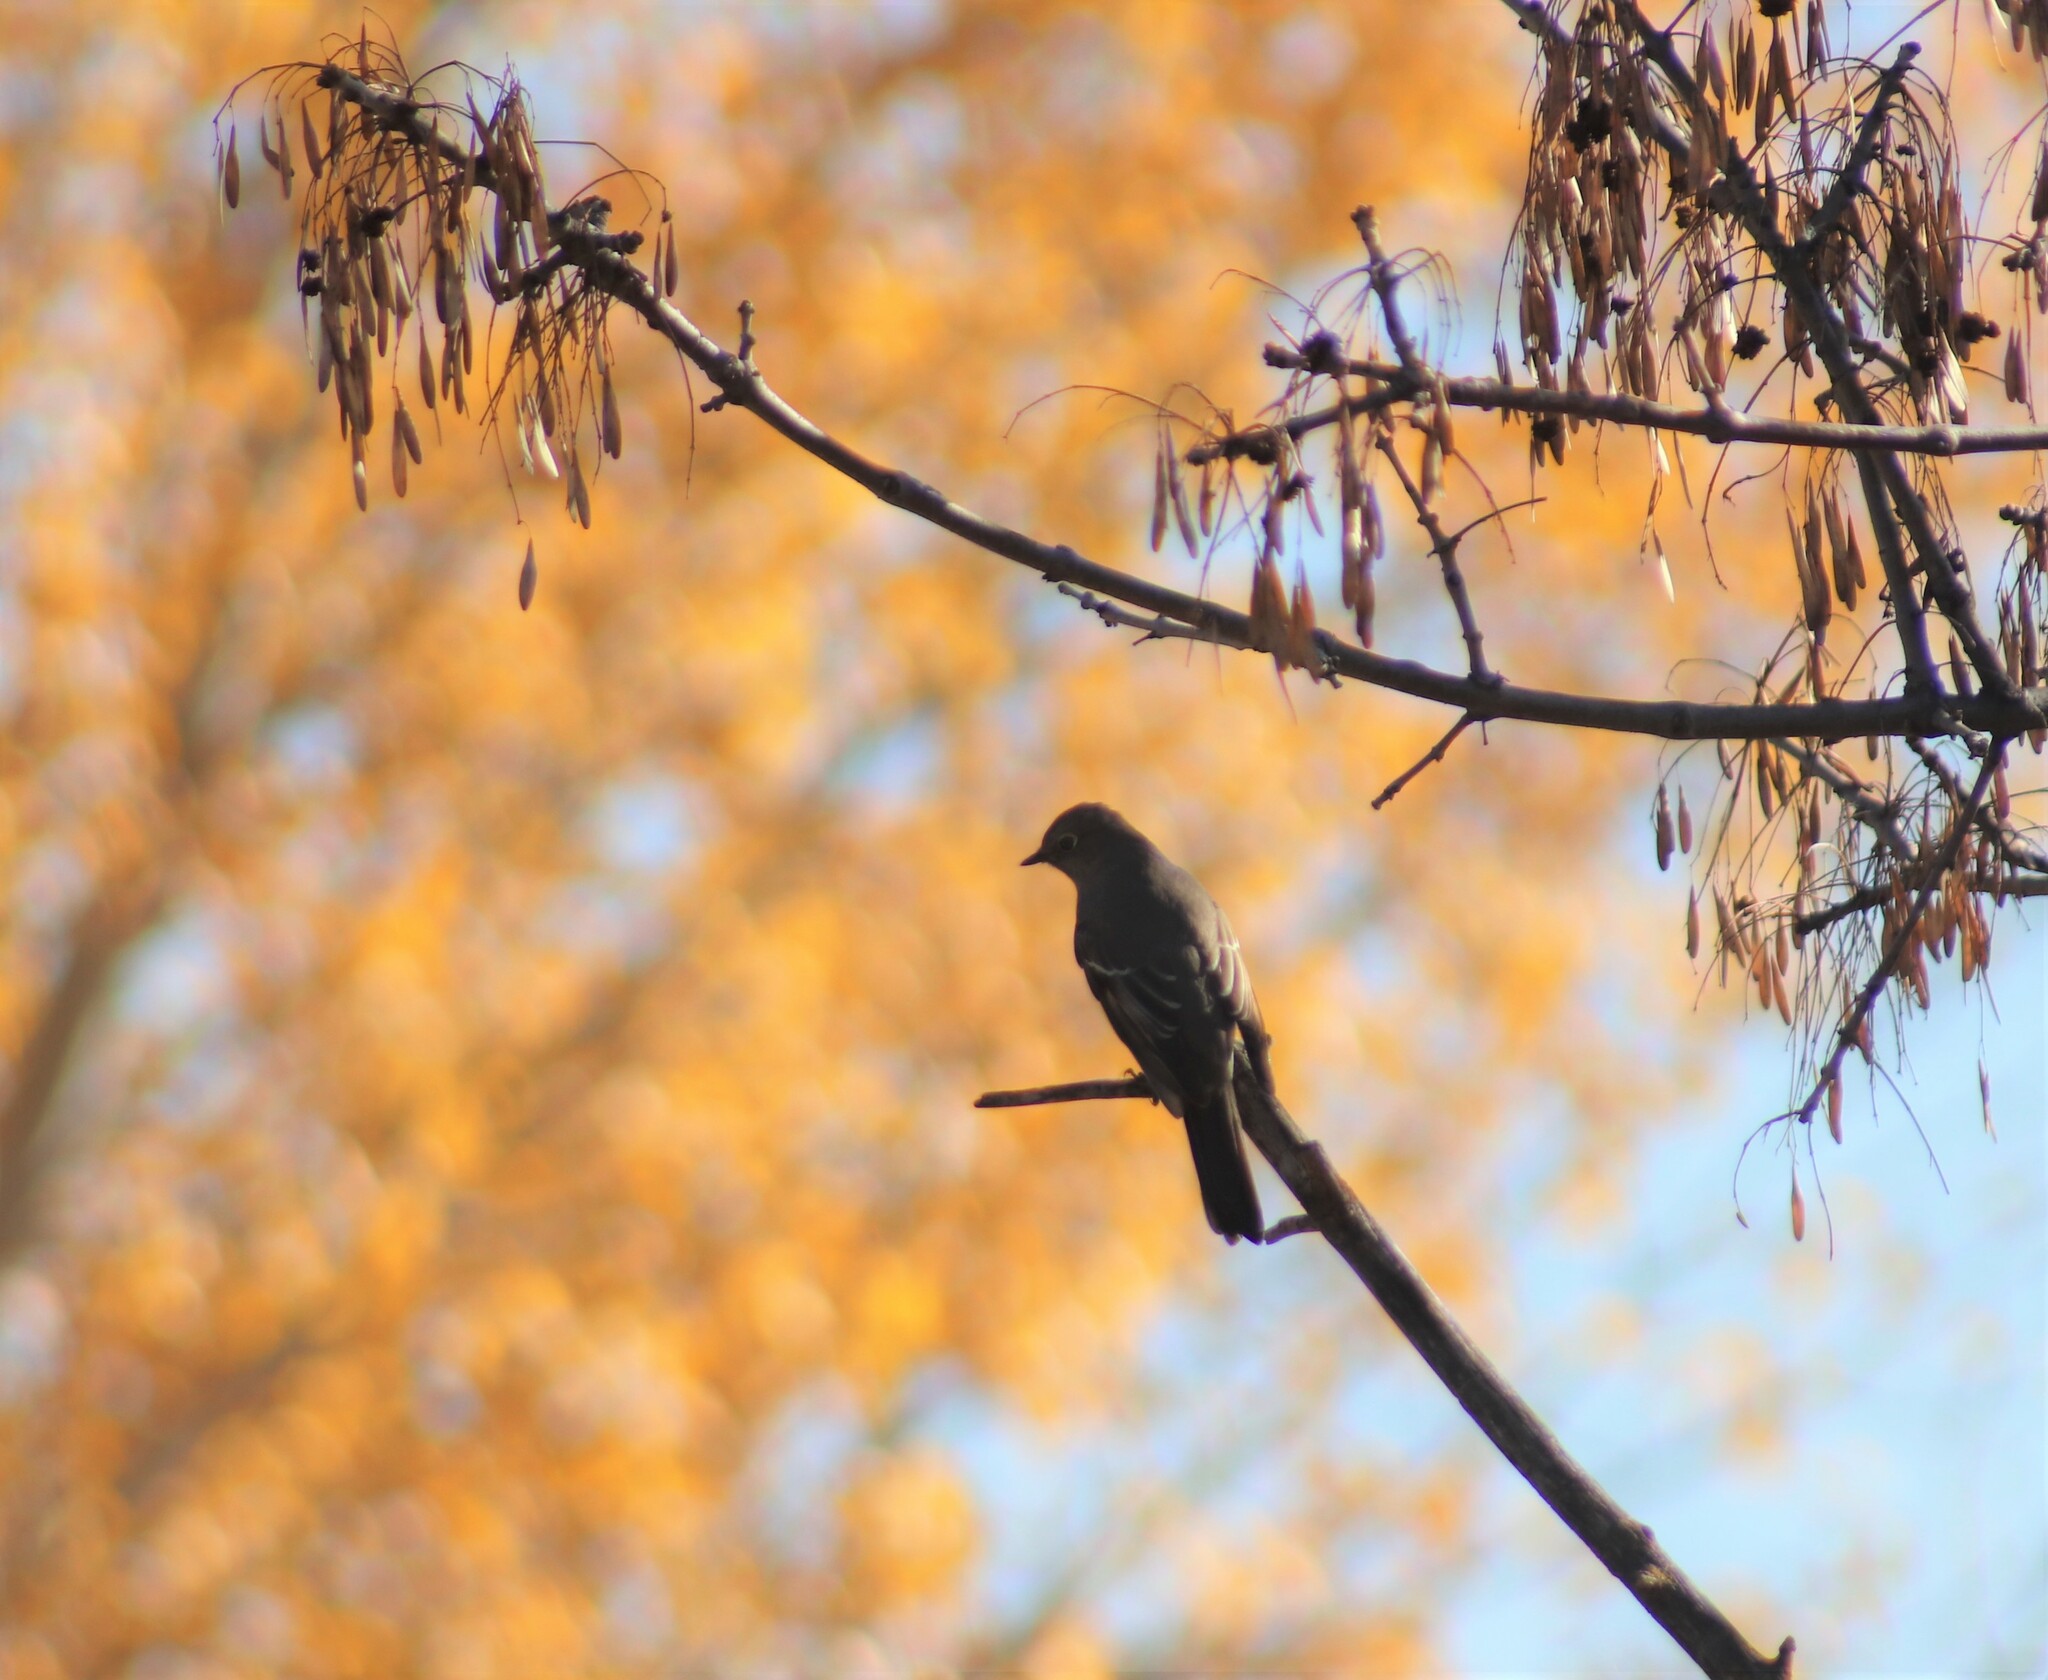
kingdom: Animalia
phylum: Chordata
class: Aves
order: Passeriformes
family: Turdidae
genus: Myadestes
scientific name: Myadestes townsendi
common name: Townsend's solitaire
